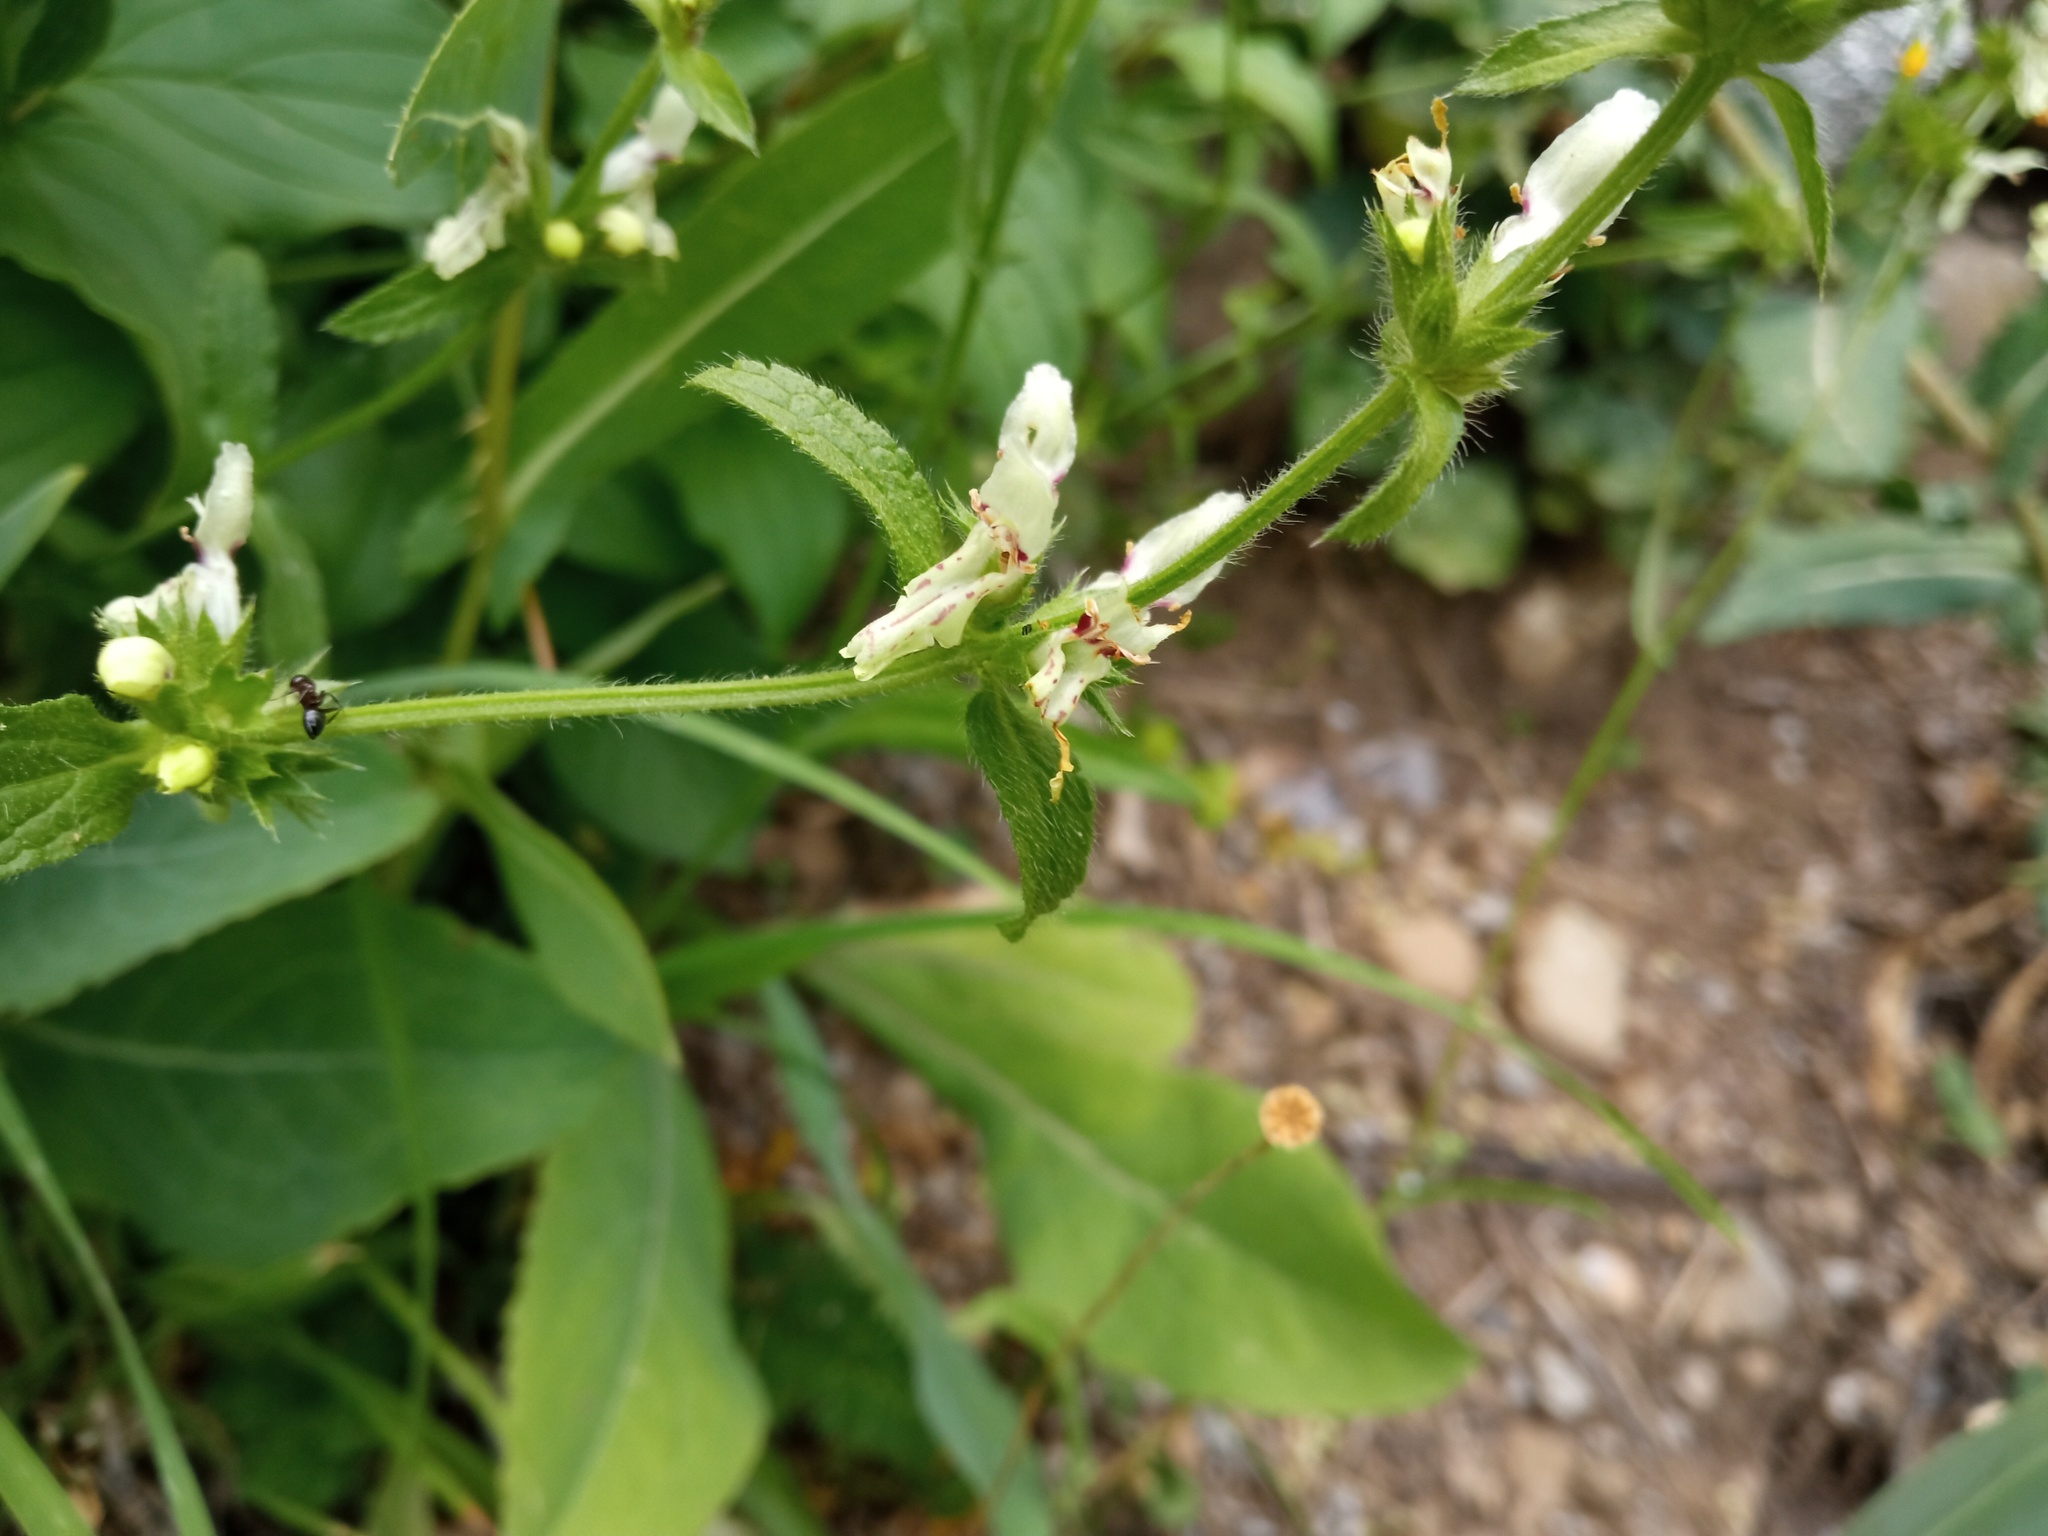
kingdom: Plantae
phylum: Tracheophyta
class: Magnoliopsida
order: Lamiales
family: Lamiaceae
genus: Stachys
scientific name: Stachys recta
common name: Perennial yellow-woundwort
